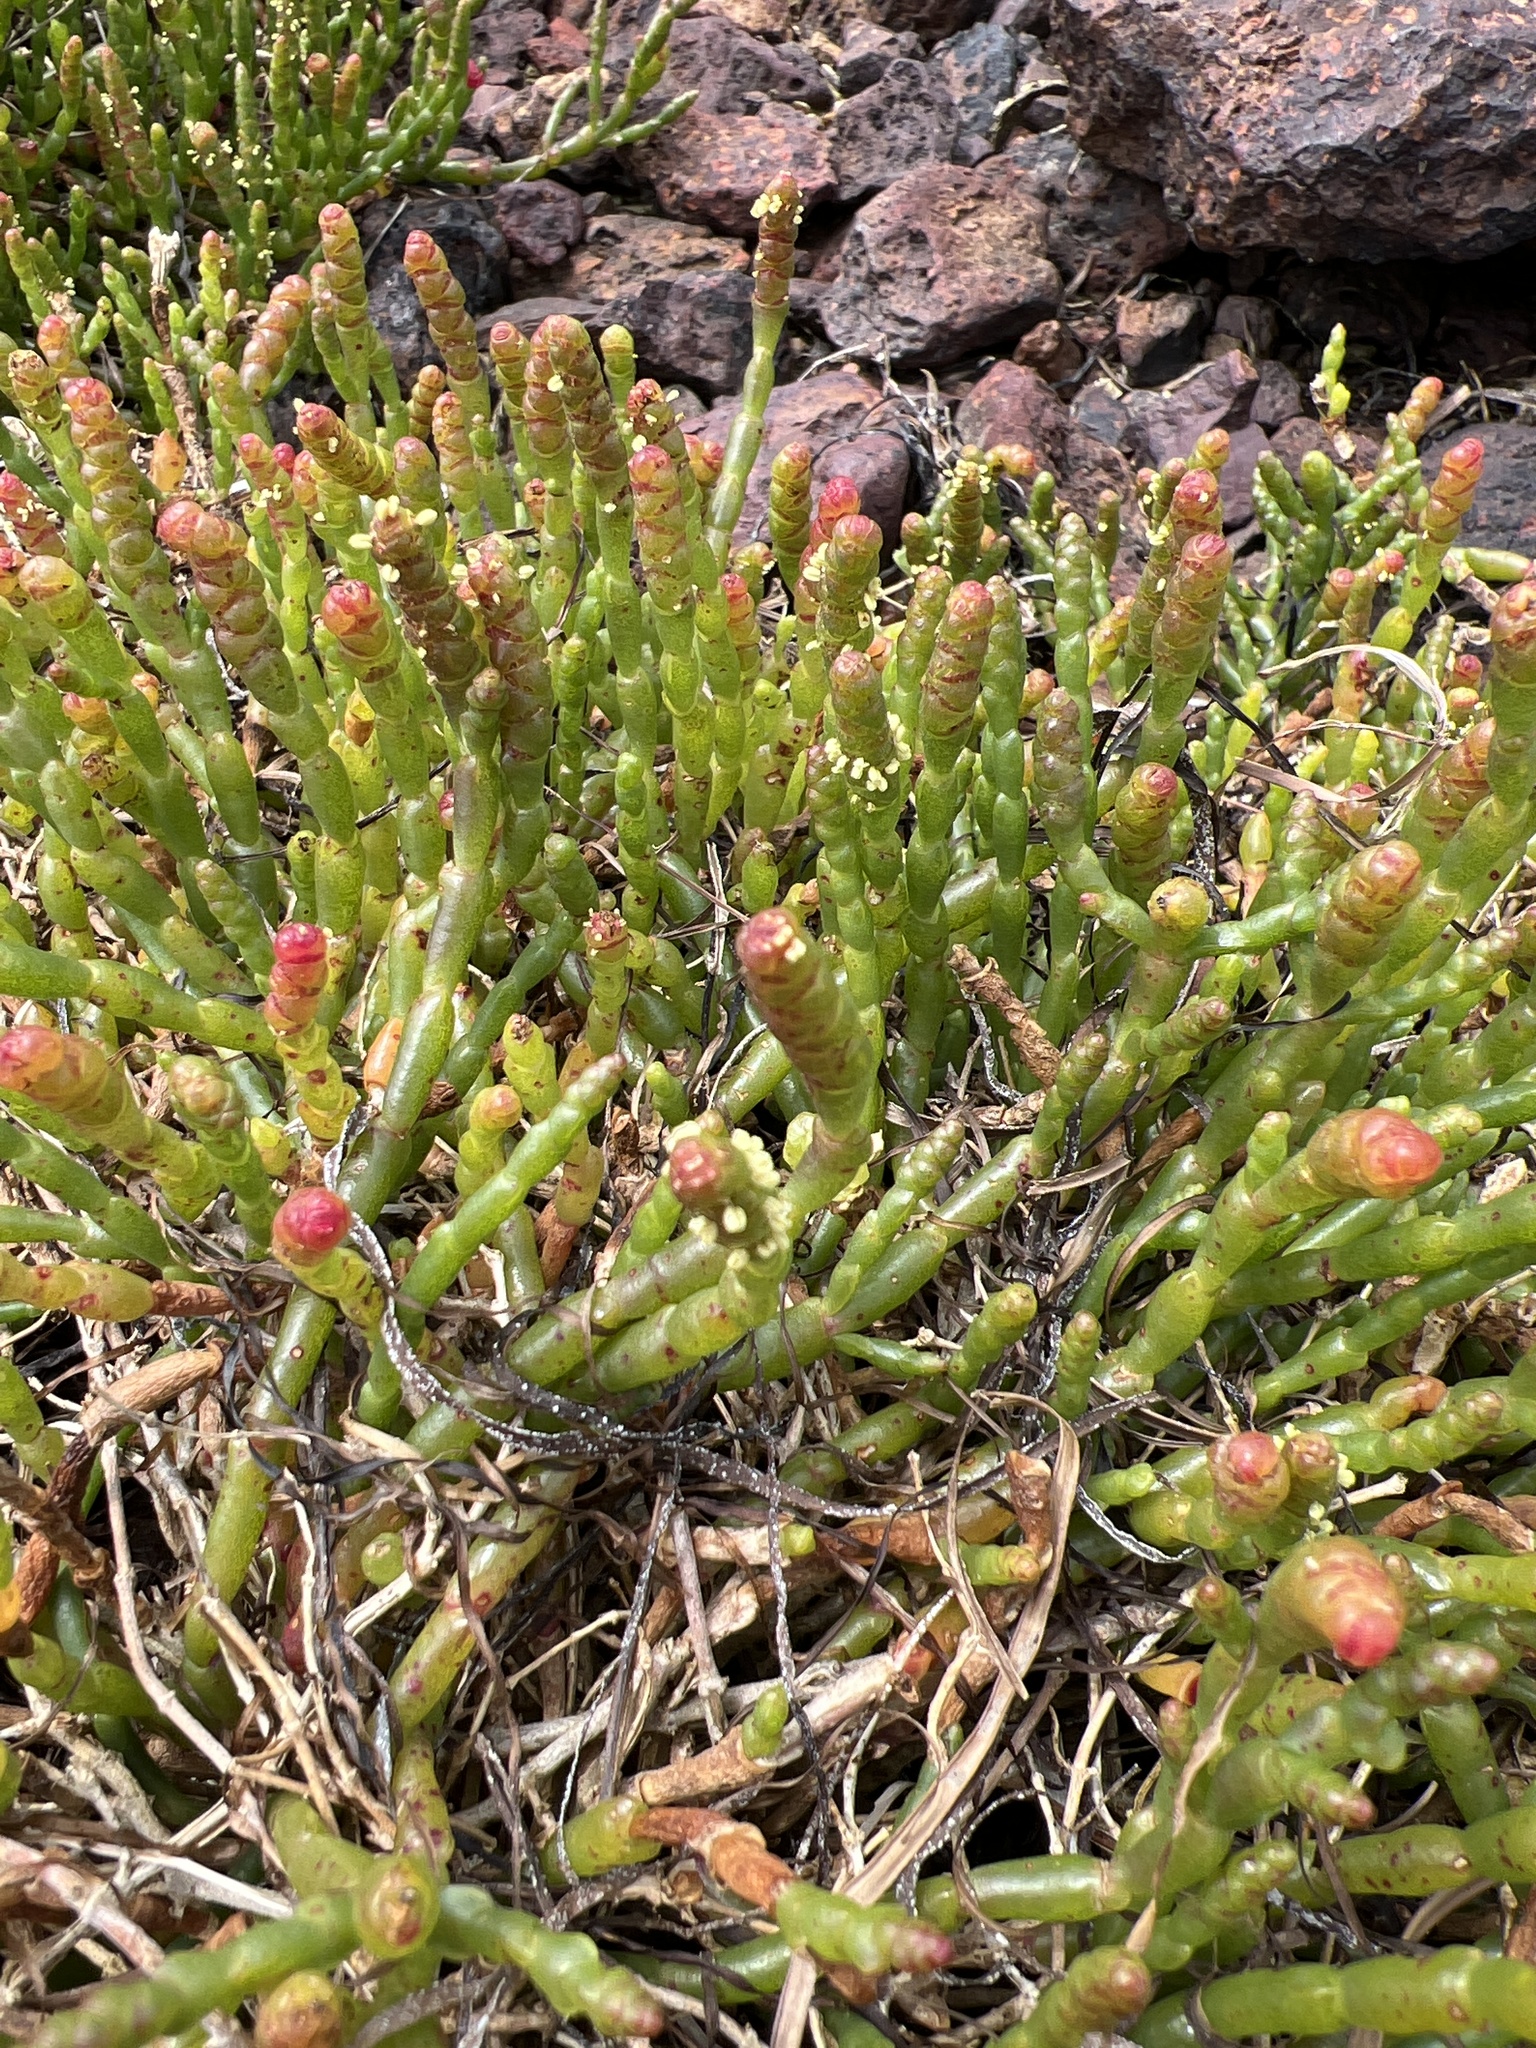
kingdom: Plantae
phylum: Tracheophyta
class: Magnoliopsida
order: Caryophyllales
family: Amaranthaceae
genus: Salicornia
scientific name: Salicornia quinqueflora
